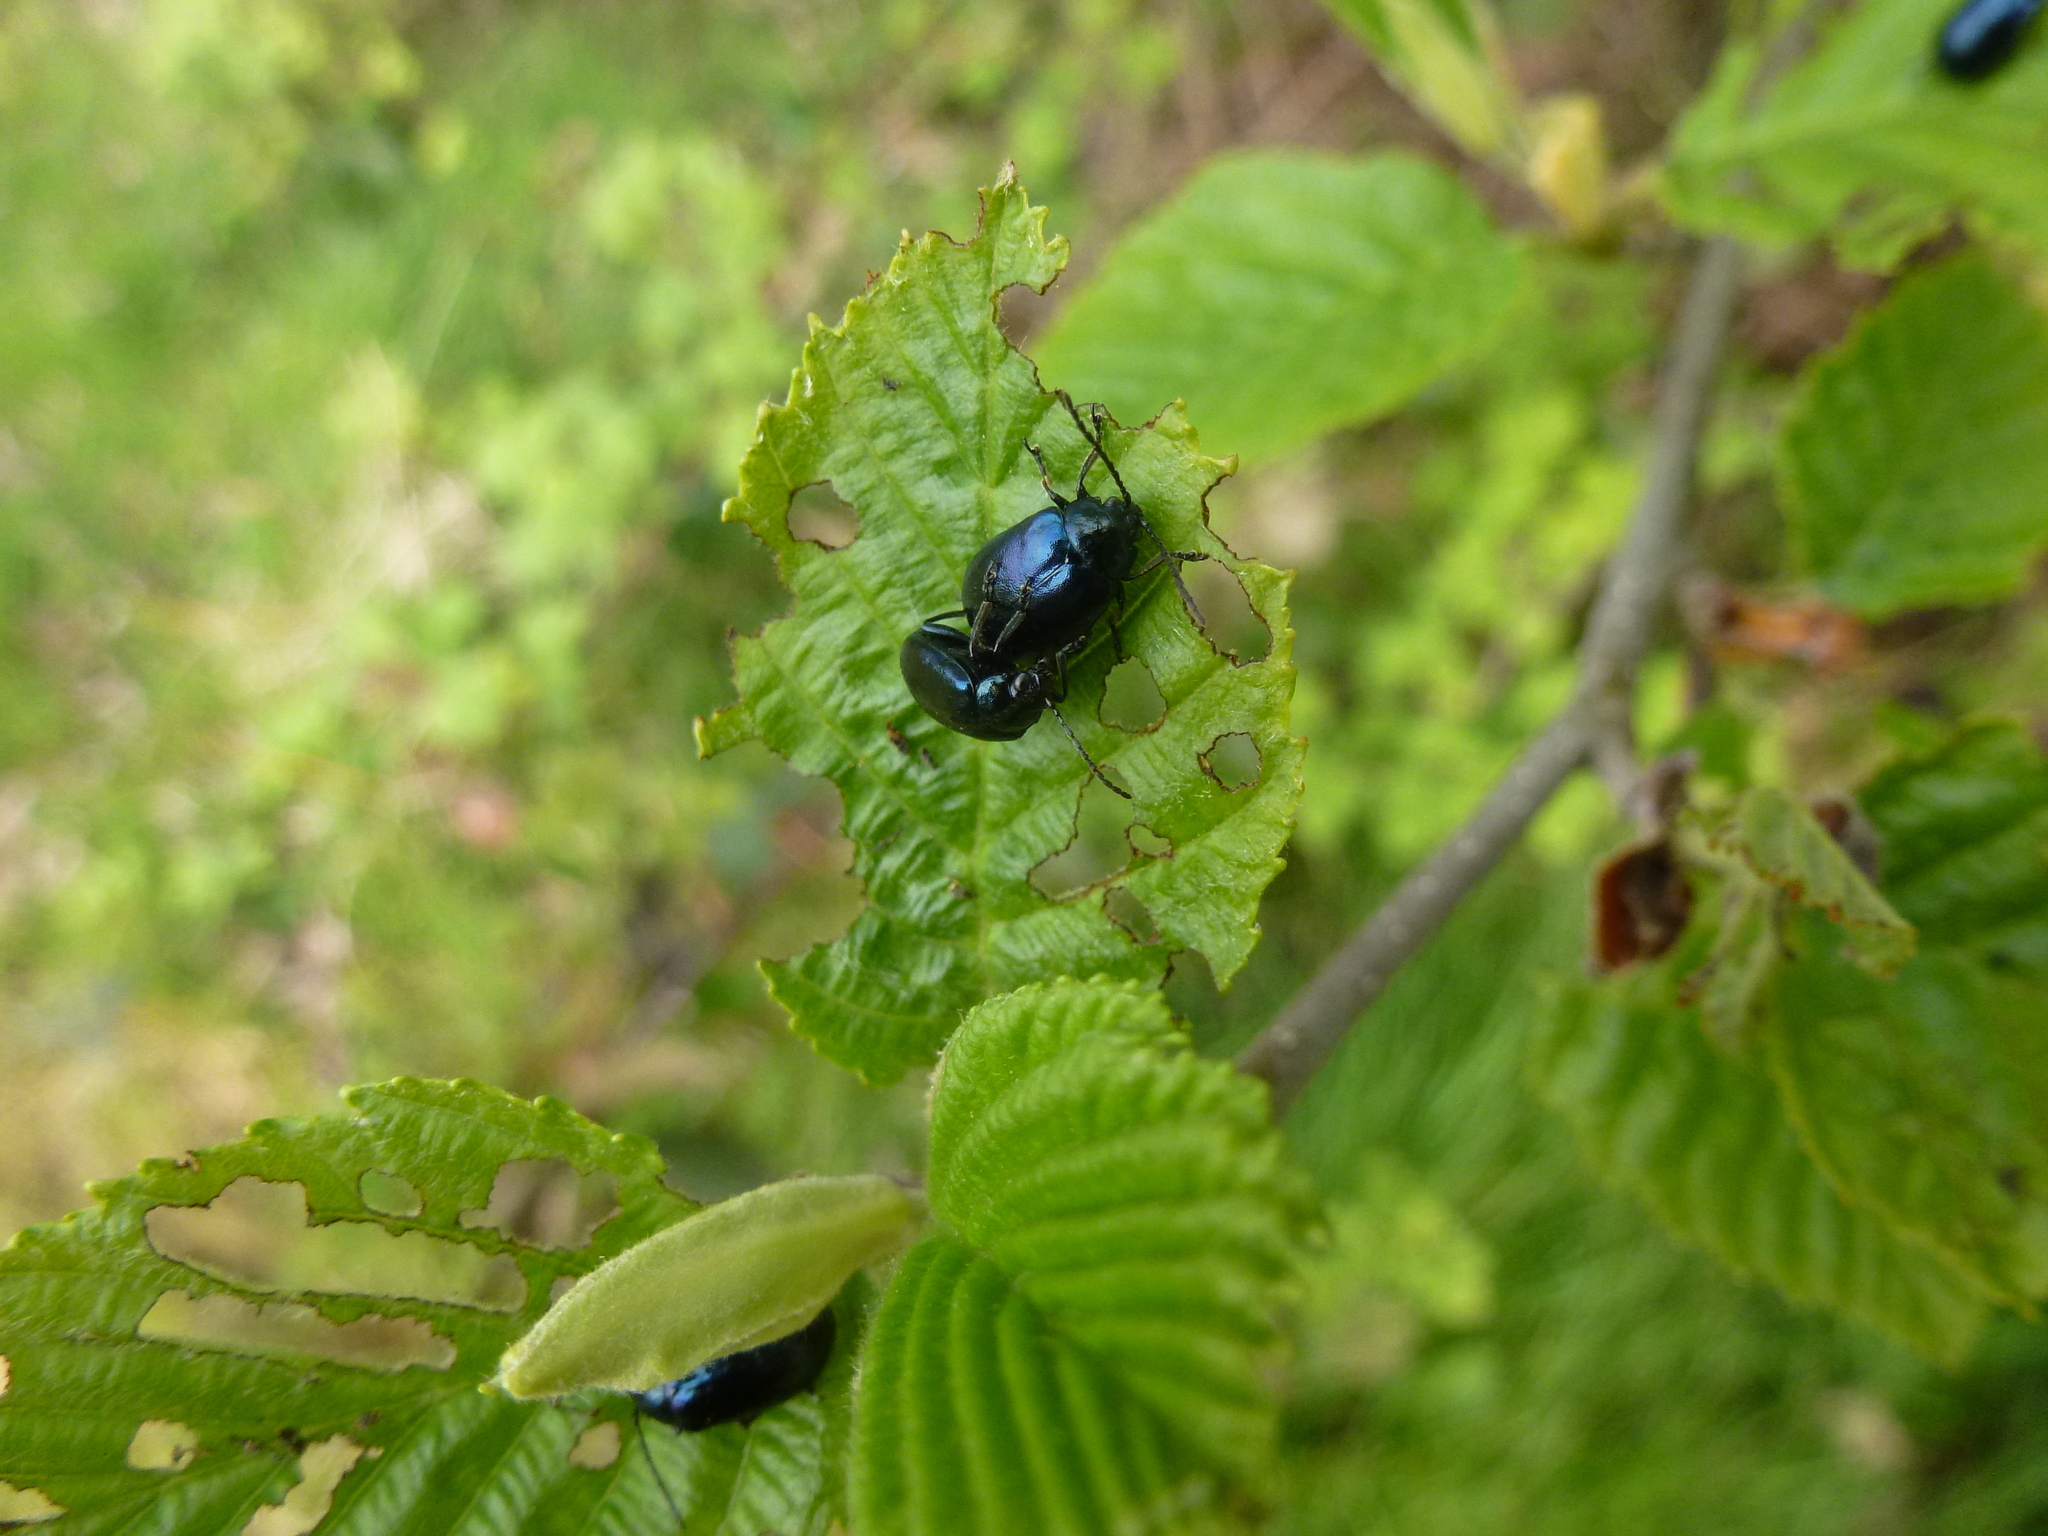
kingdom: Animalia
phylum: Arthropoda
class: Insecta
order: Coleoptera
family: Chrysomelidae
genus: Agelastica
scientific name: Agelastica alni
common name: Alder leaf beetle
